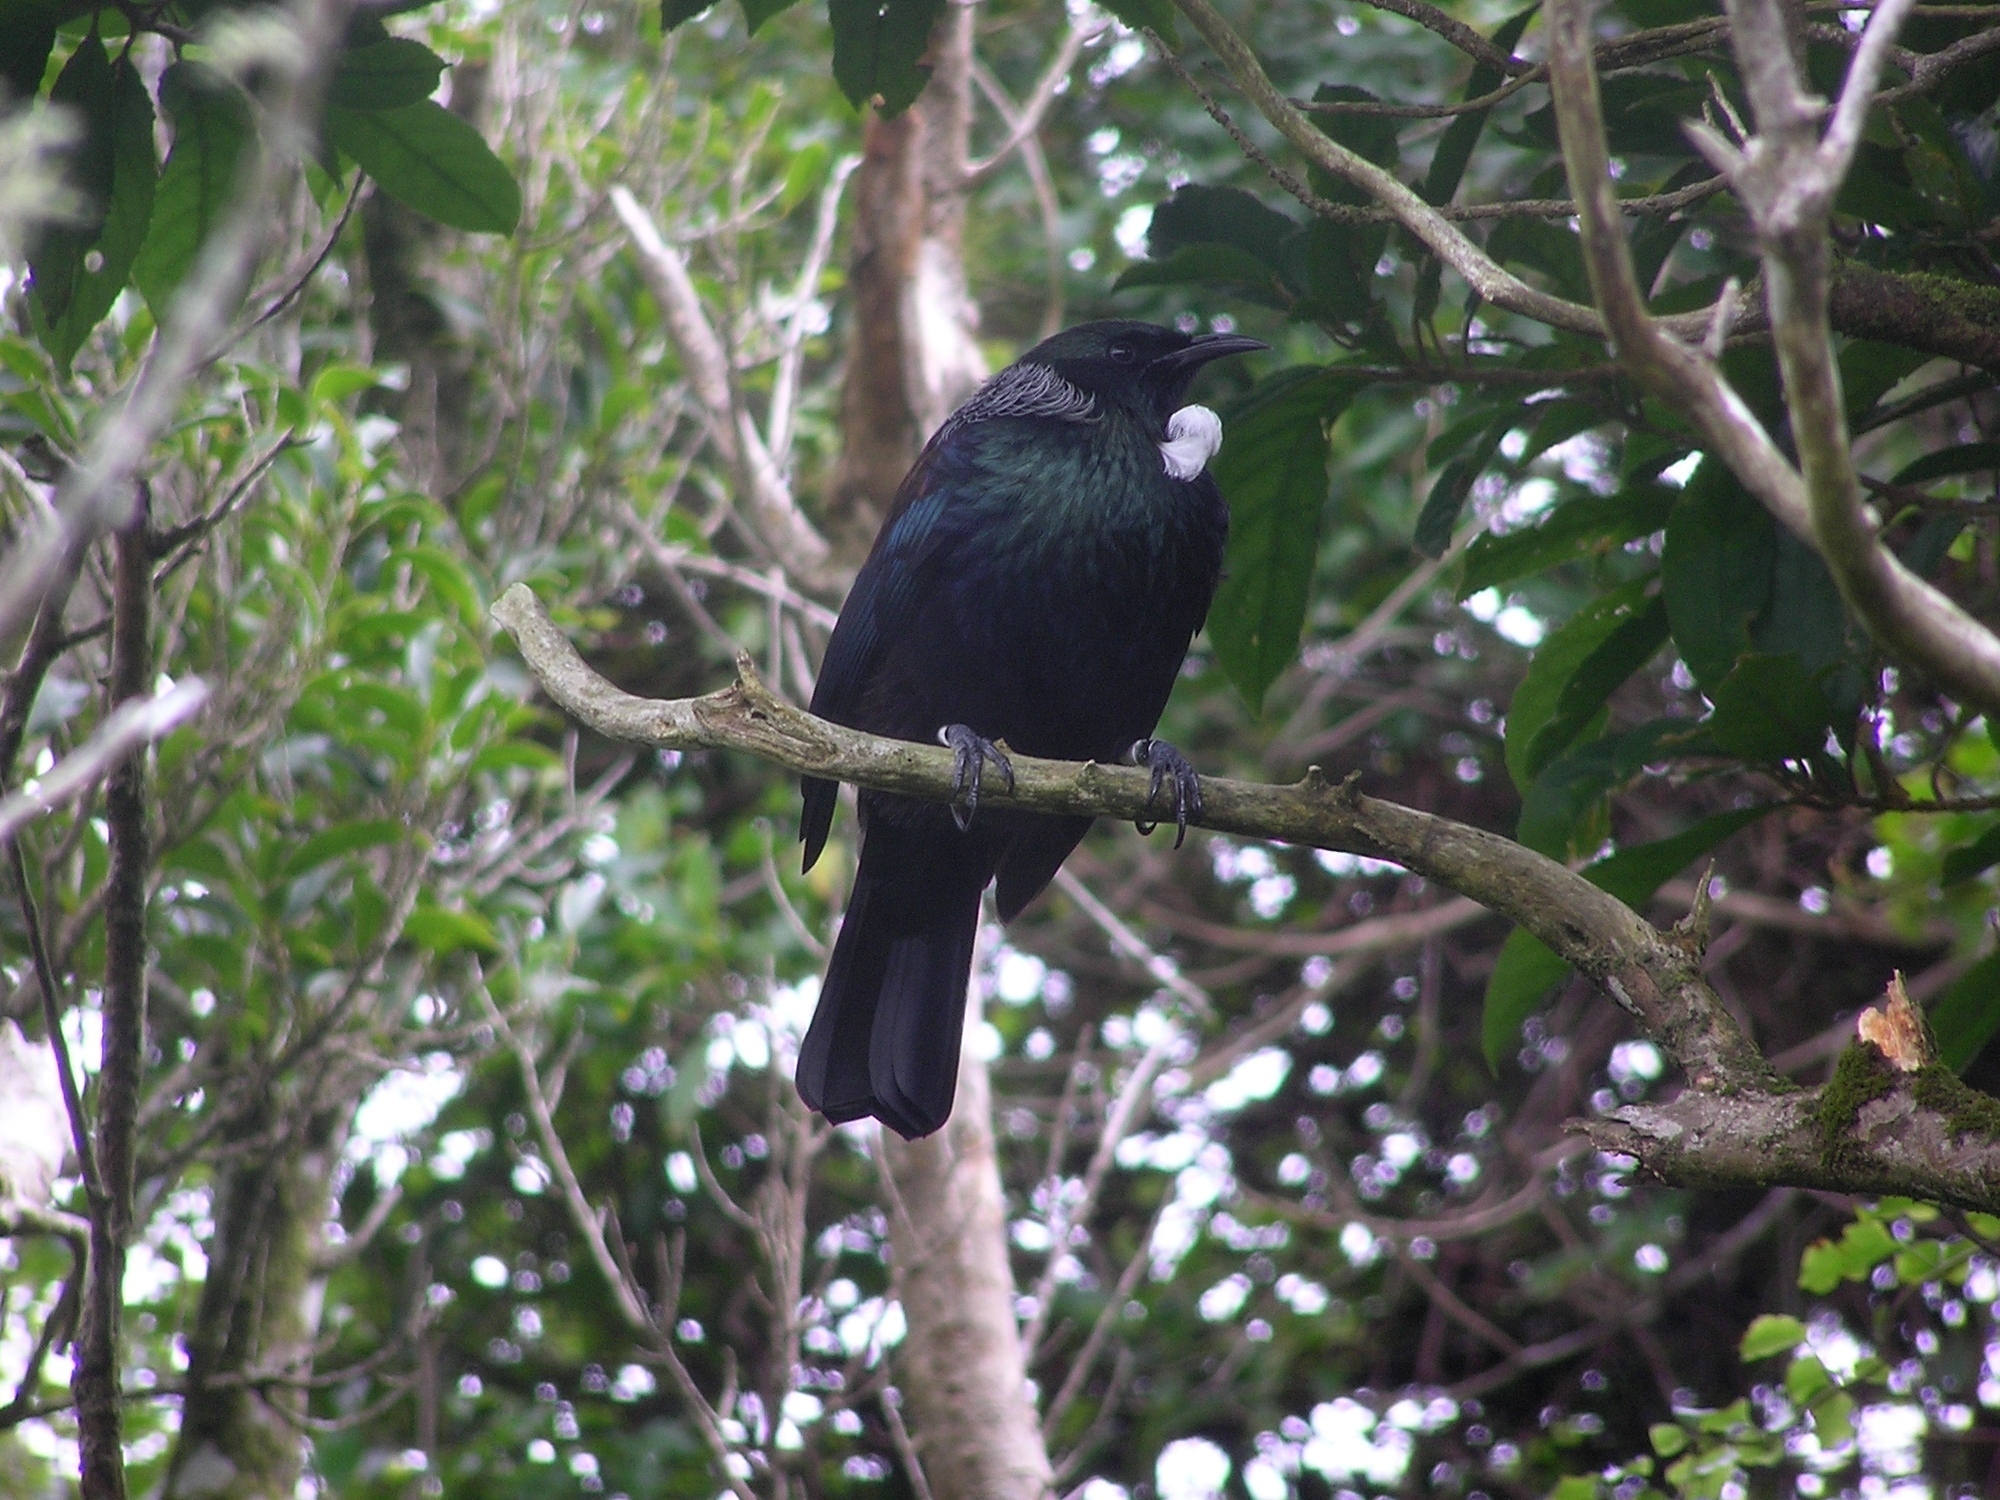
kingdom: Animalia
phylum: Chordata
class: Aves
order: Passeriformes
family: Meliphagidae
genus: Prosthemadera
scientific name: Prosthemadera novaeseelandiae
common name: Tui
